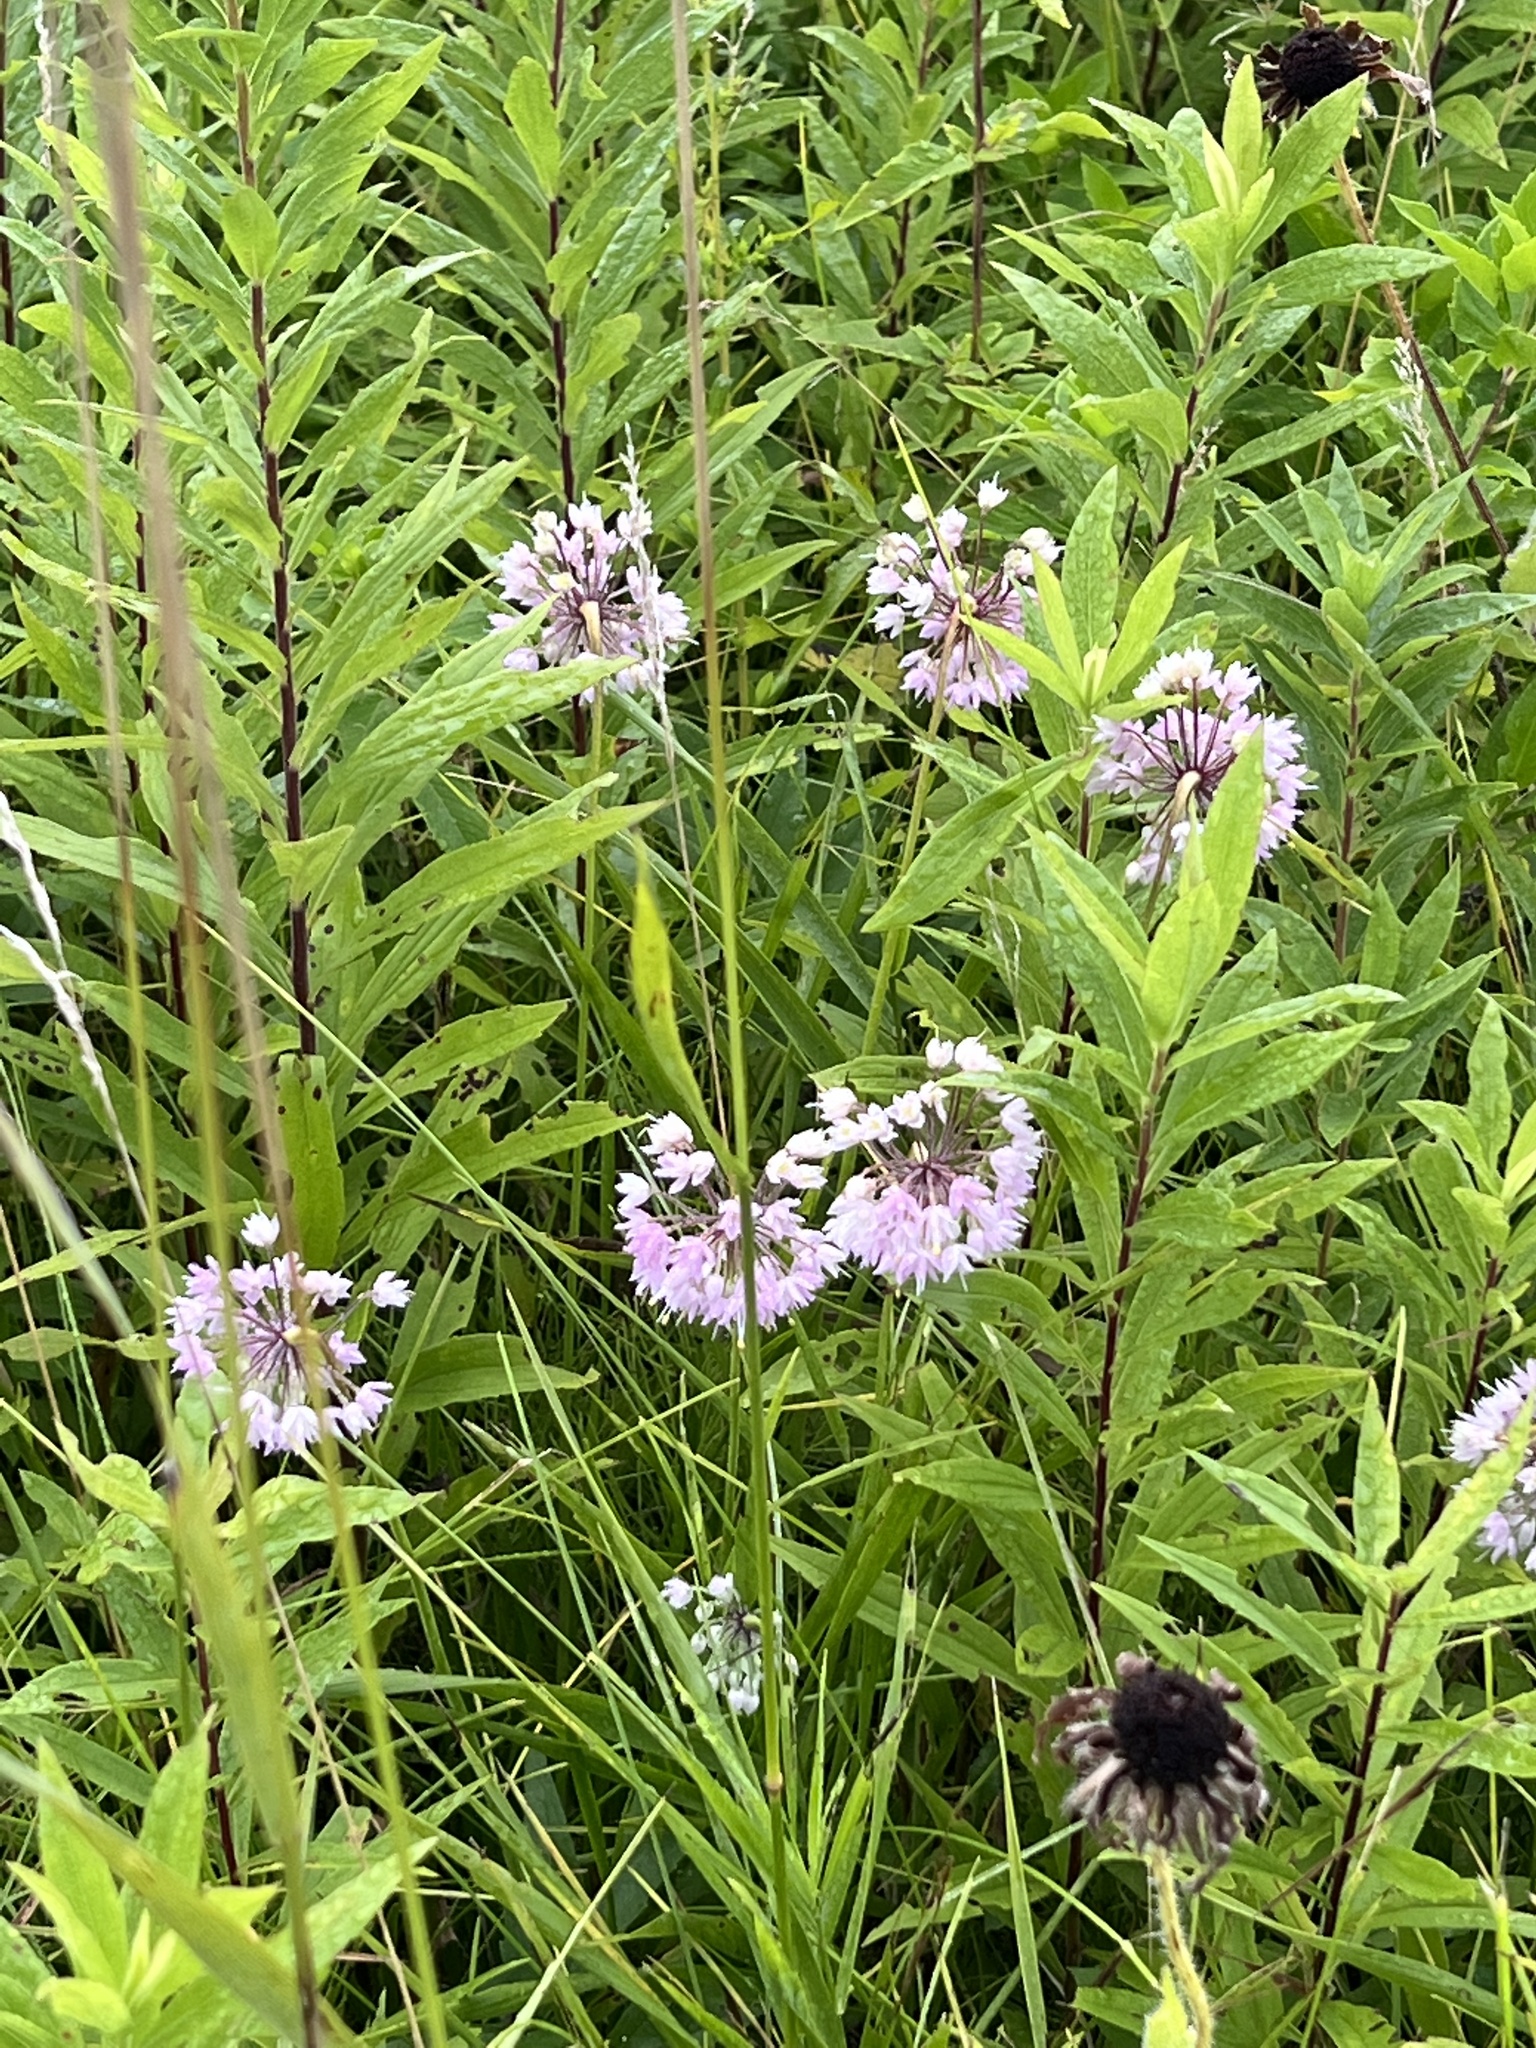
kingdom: Plantae
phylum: Tracheophyta
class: Liliopsida
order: Asparagales
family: Amaryllidaceae
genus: Allium
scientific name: Allium cernuum
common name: Nodding onion
